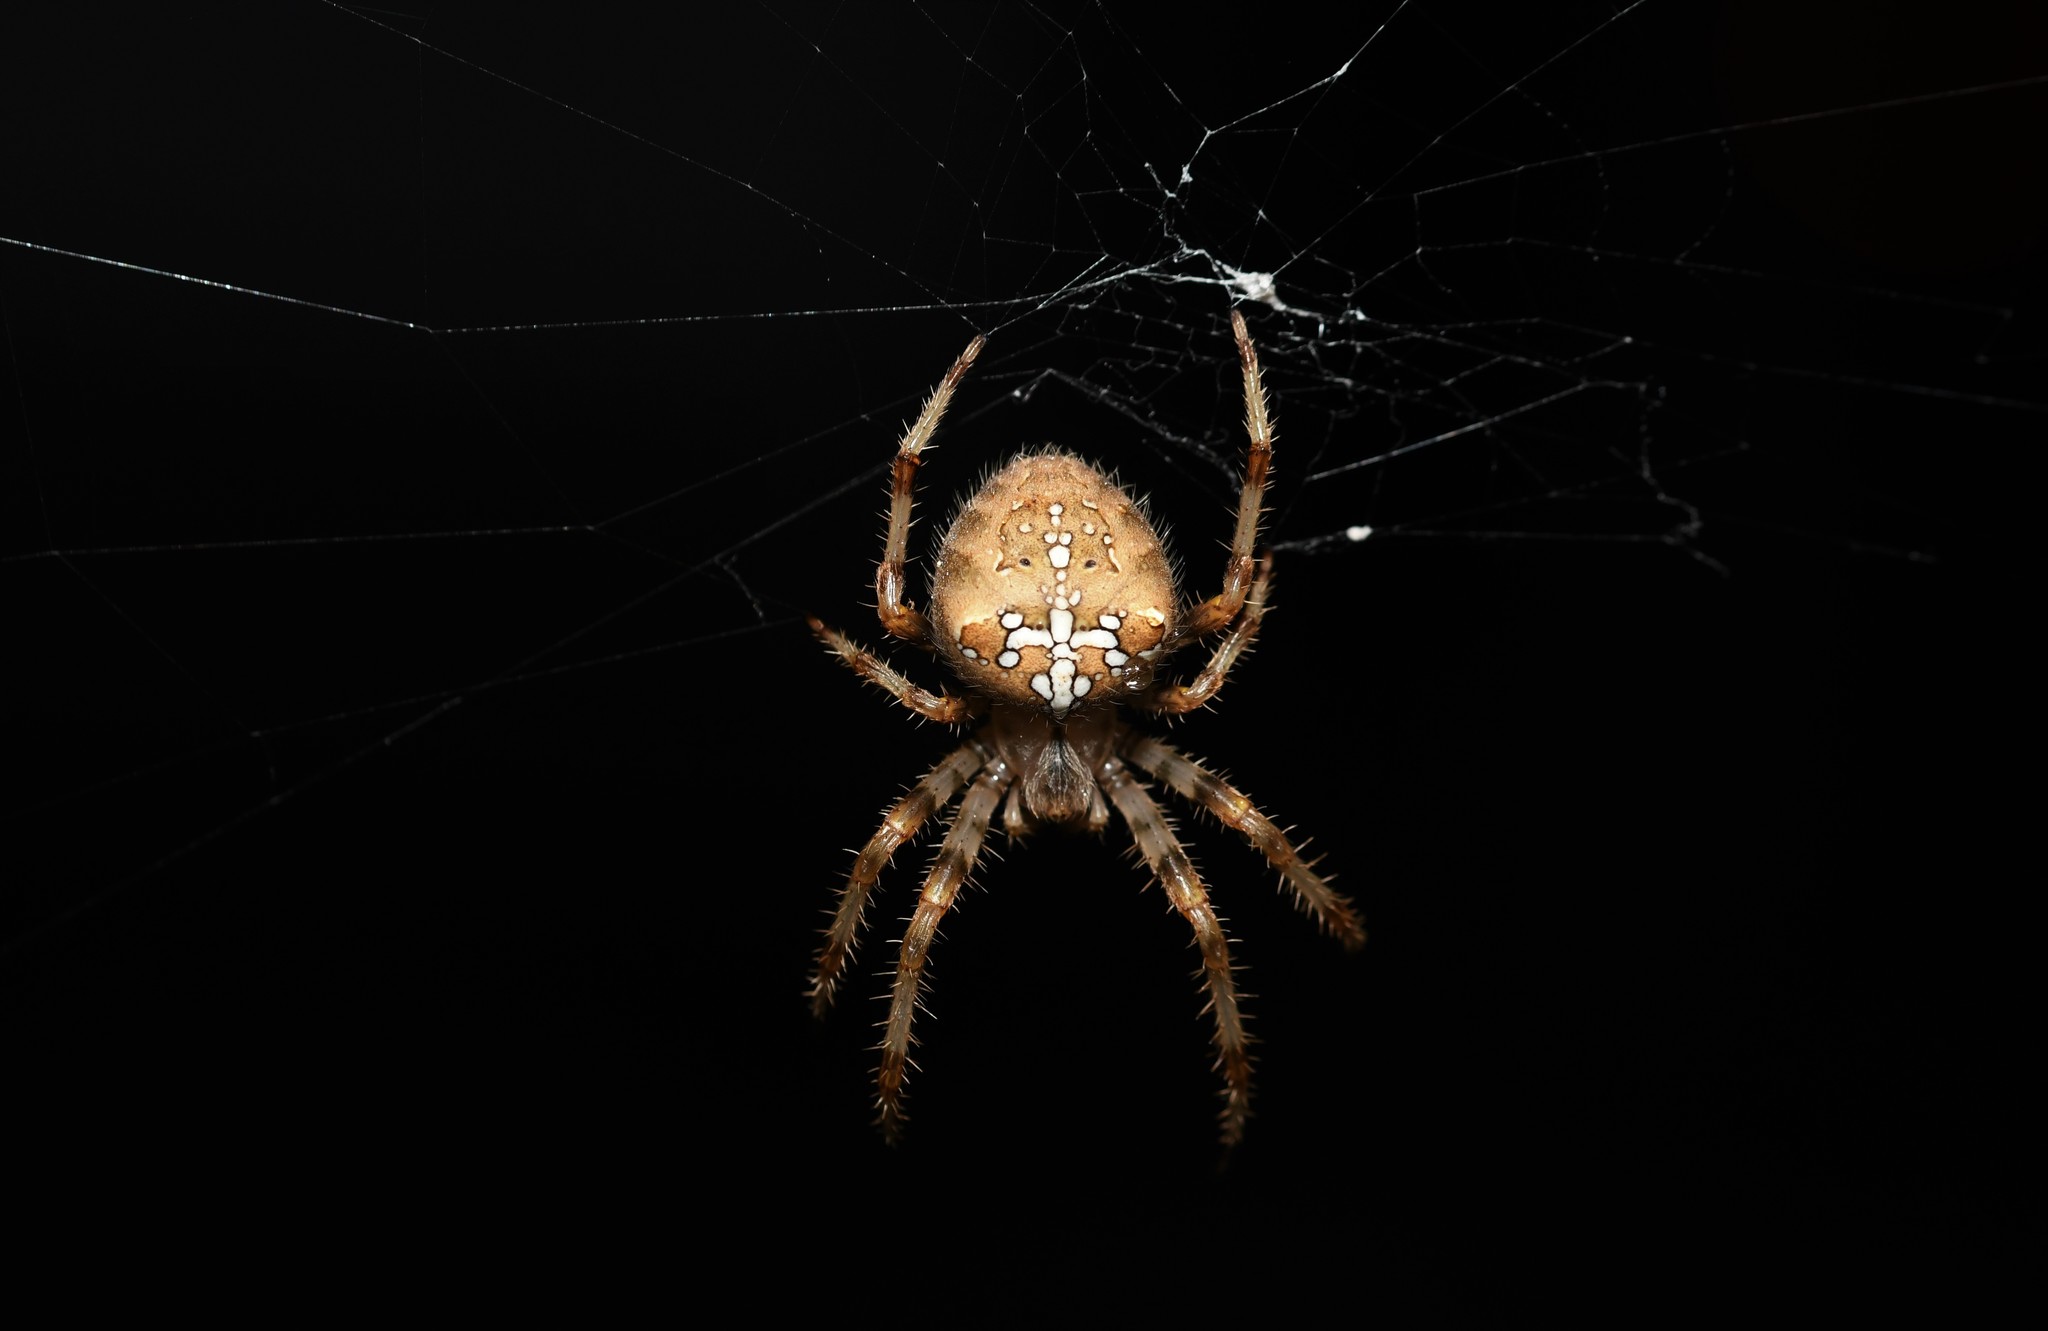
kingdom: Animalia
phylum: Arthropoda
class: Arachnida
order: Araneae
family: Araneidae
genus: Araneus
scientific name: Araneus pallidus
